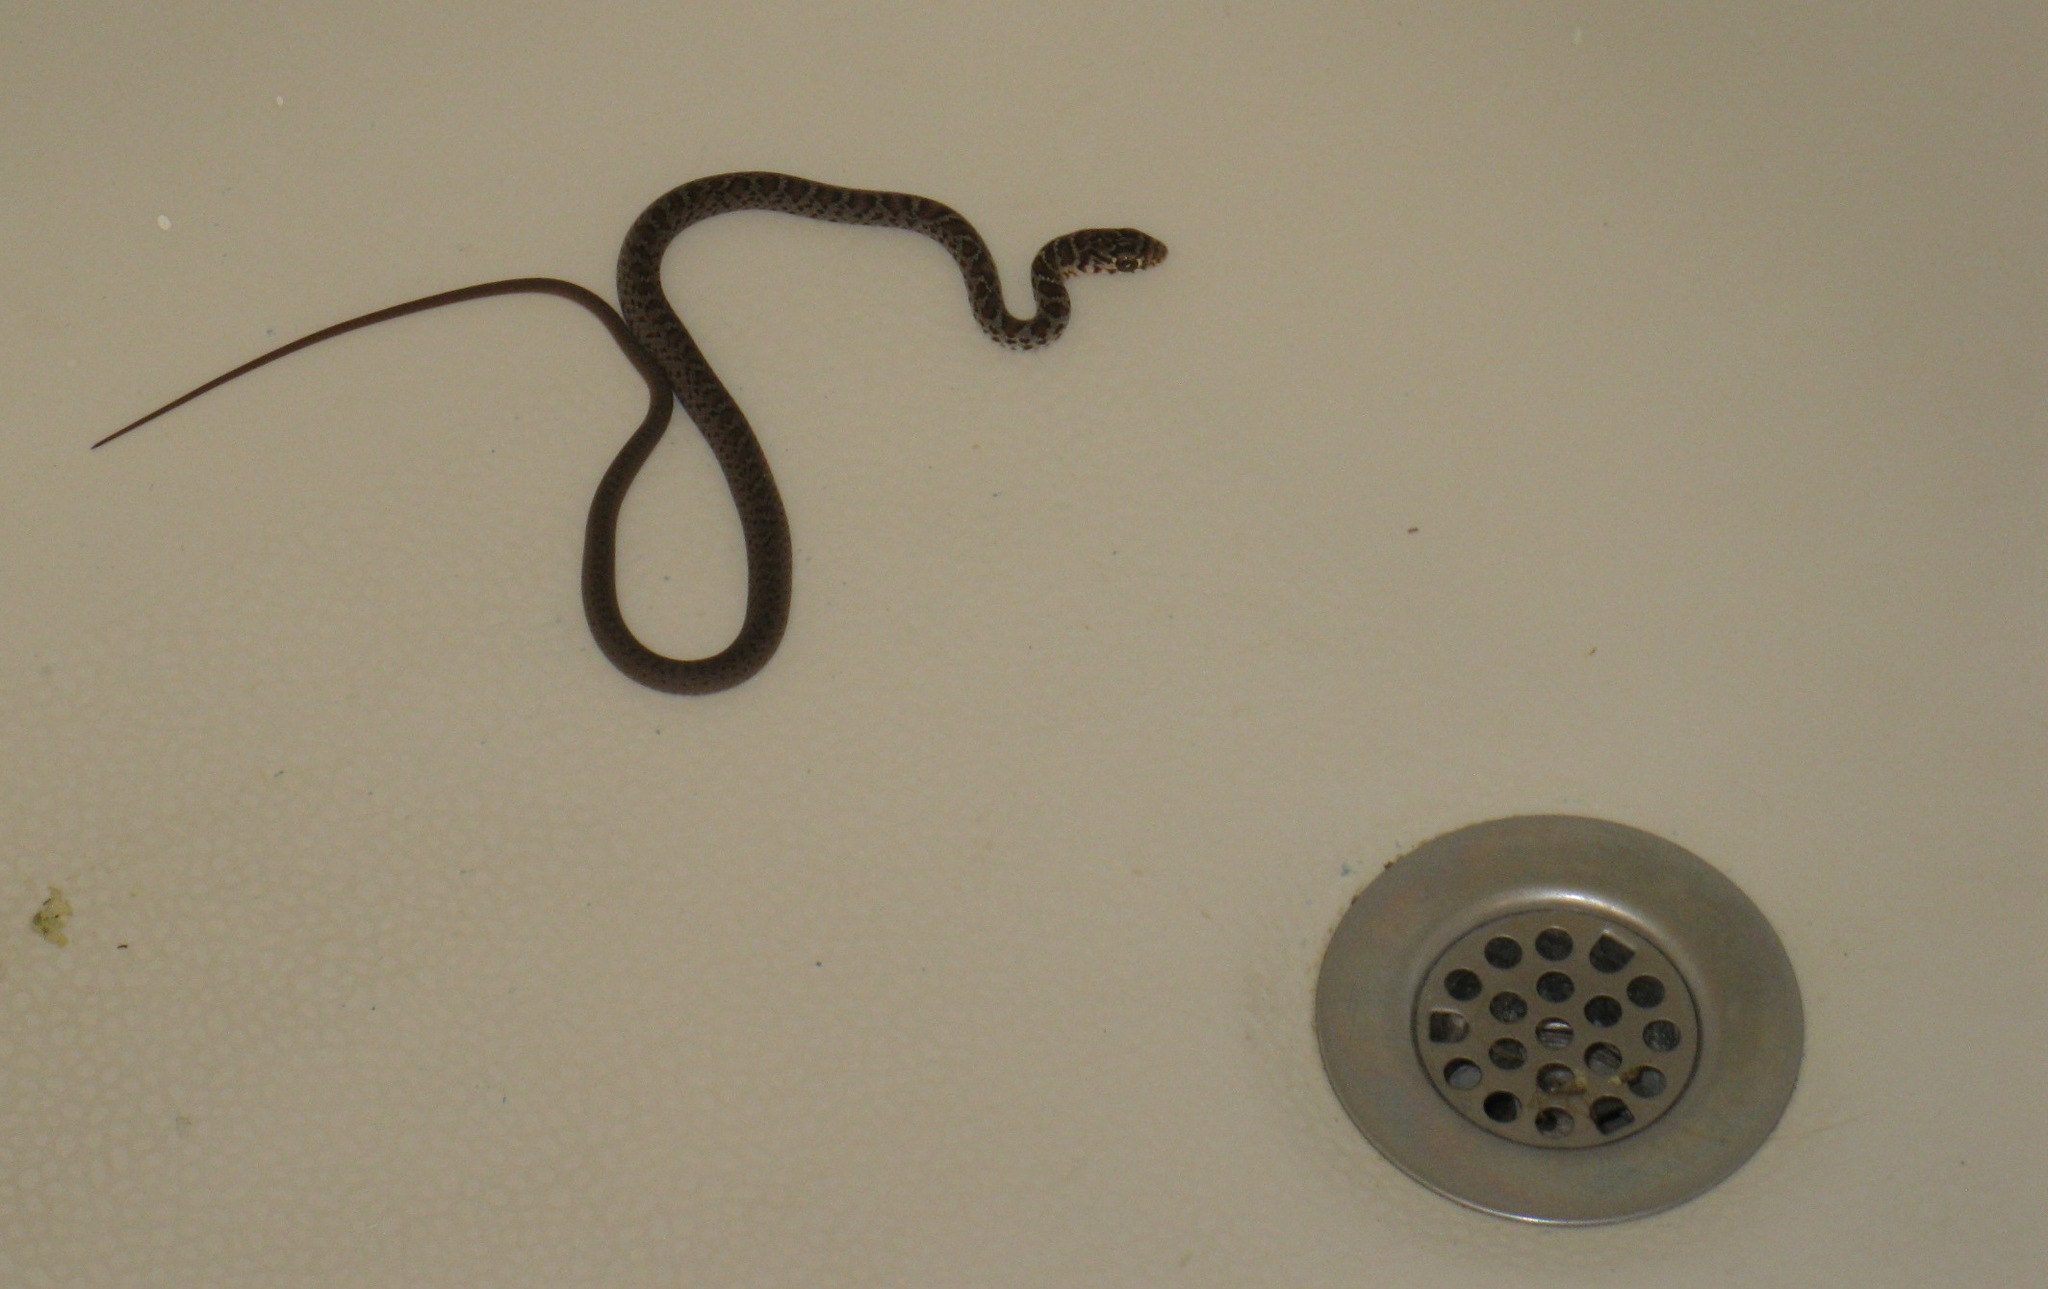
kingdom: Animalia
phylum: Chordata
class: Squamata
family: Colubridae
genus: Coluber
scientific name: Coluber constrictor
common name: Eastern racer
